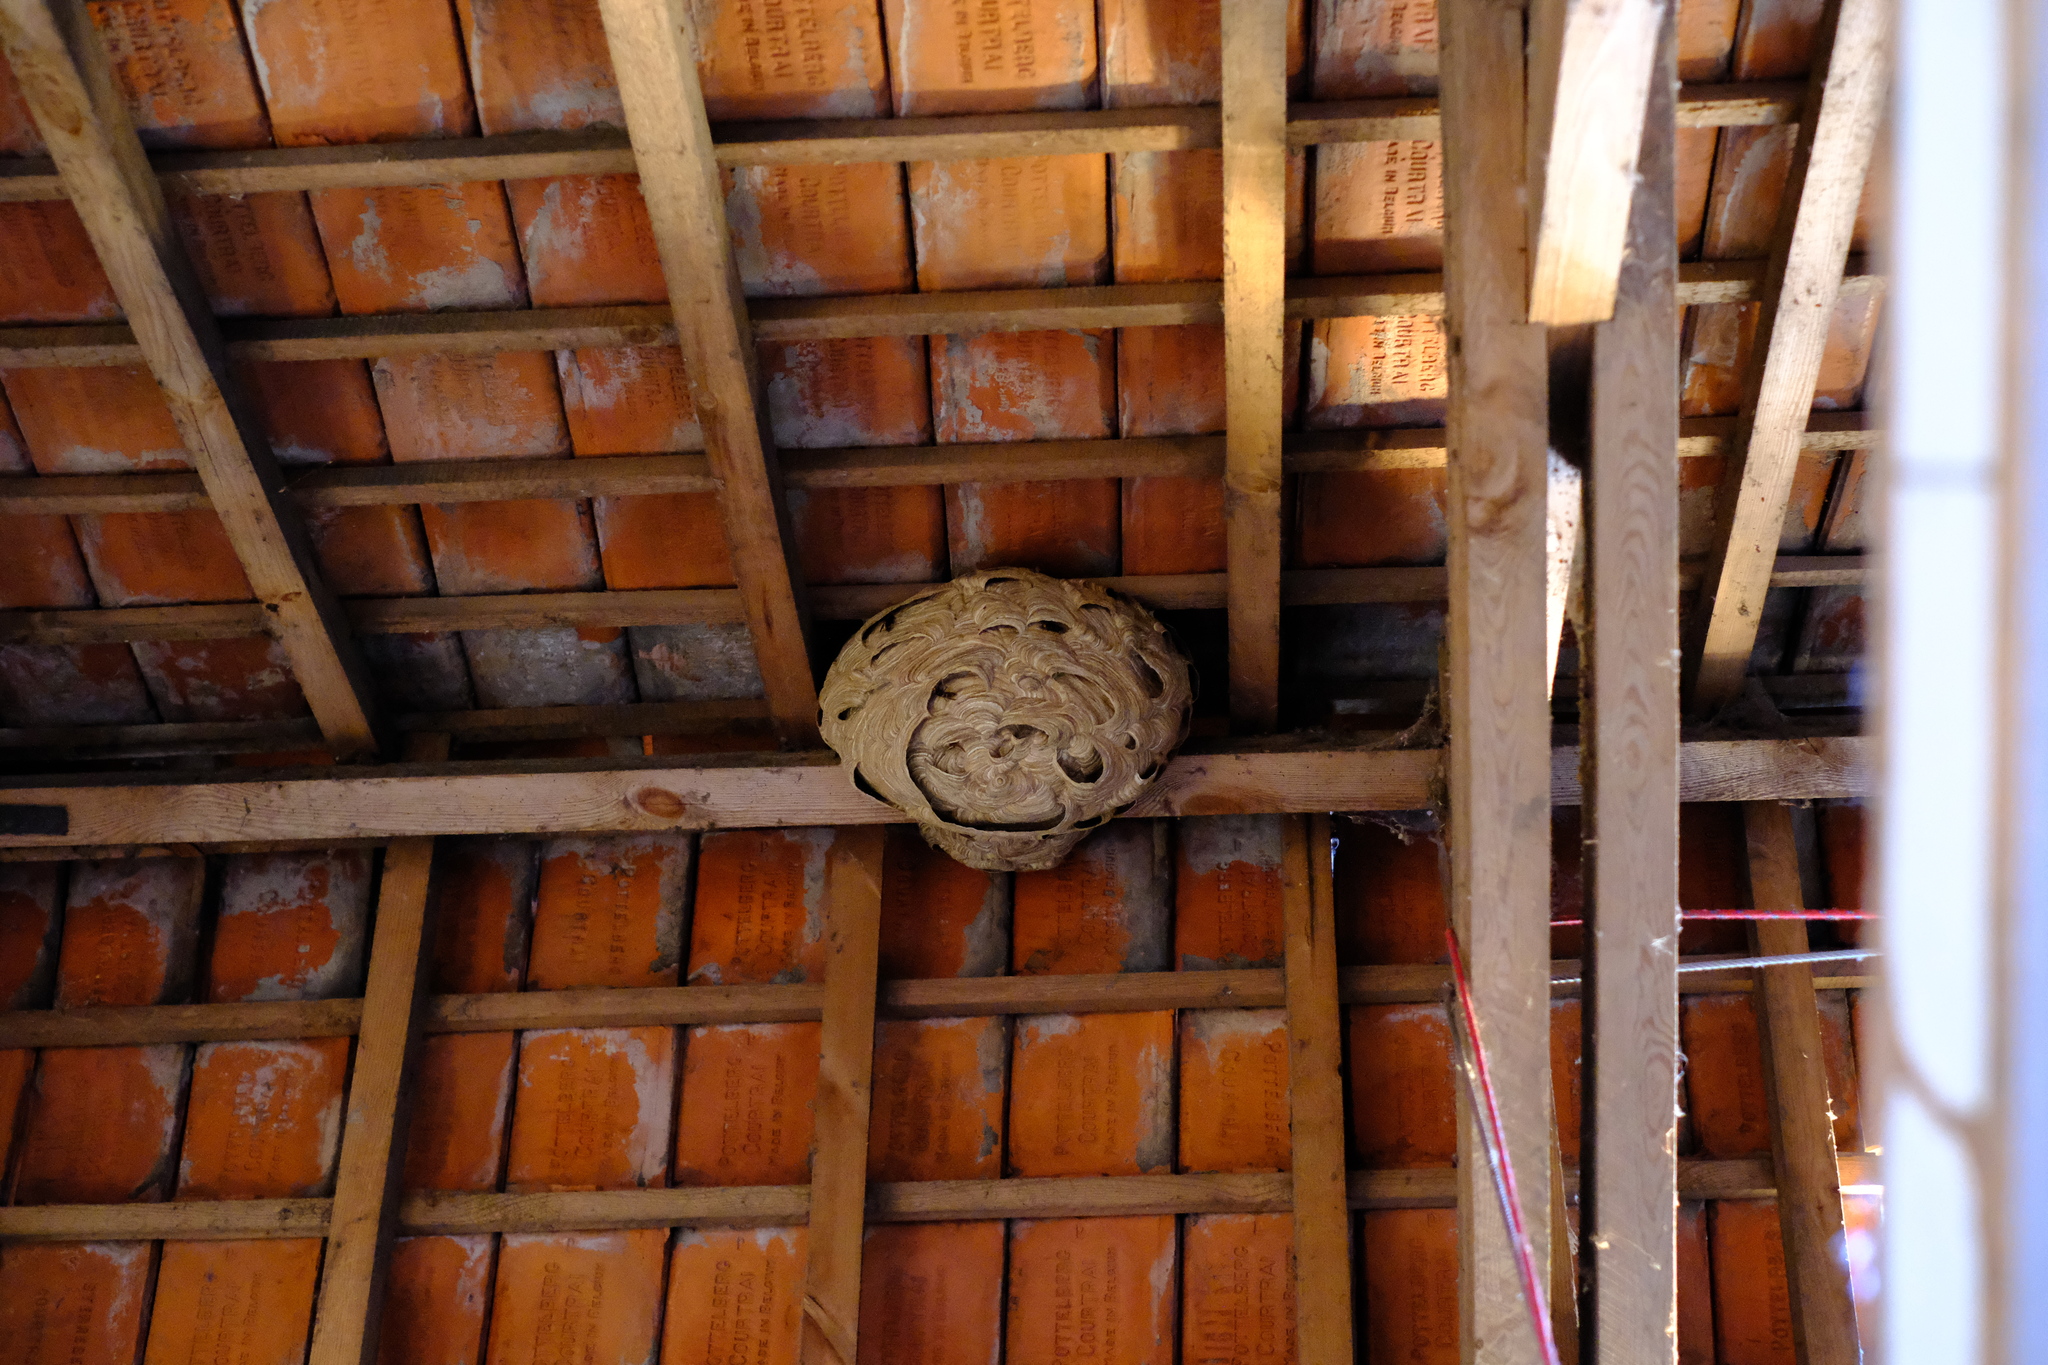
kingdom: Animalia
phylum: Arthropoda
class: Insecta
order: Hymenoptera
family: Vespidae
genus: Vespa
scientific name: Vespa velutina
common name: Asian hornet
